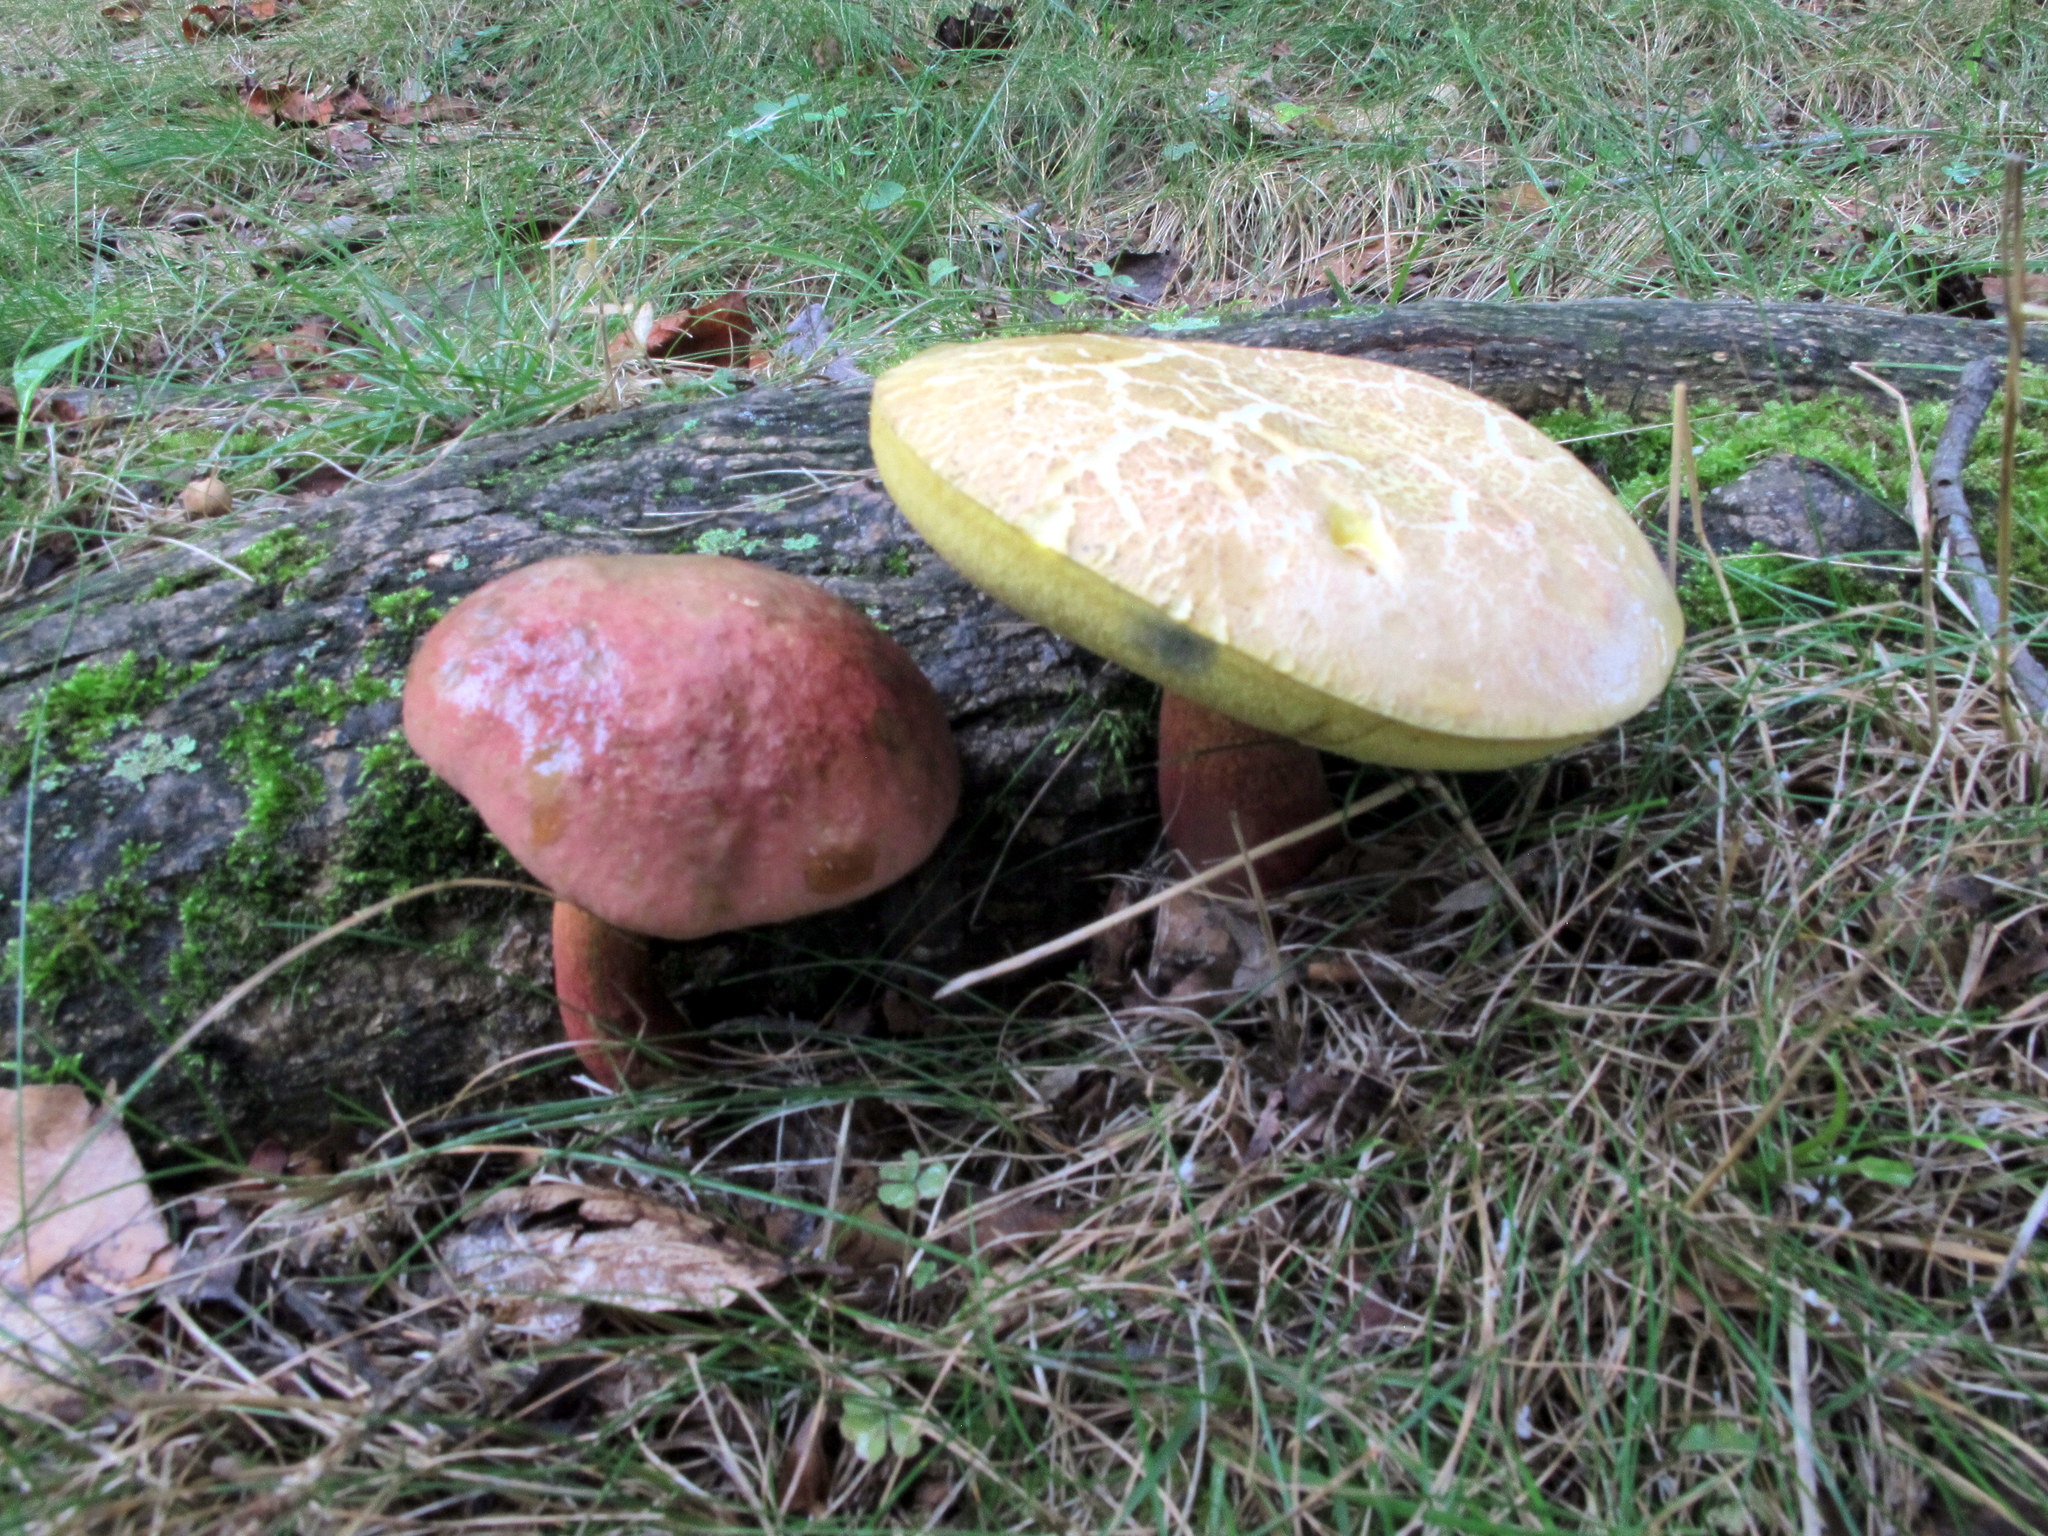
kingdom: Fungi
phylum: Basidiomycota
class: Agaricomycetes
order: Boletales
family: Boletaceae
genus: Baorangia
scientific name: Baorangia bicolor
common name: Two-colored bolete
